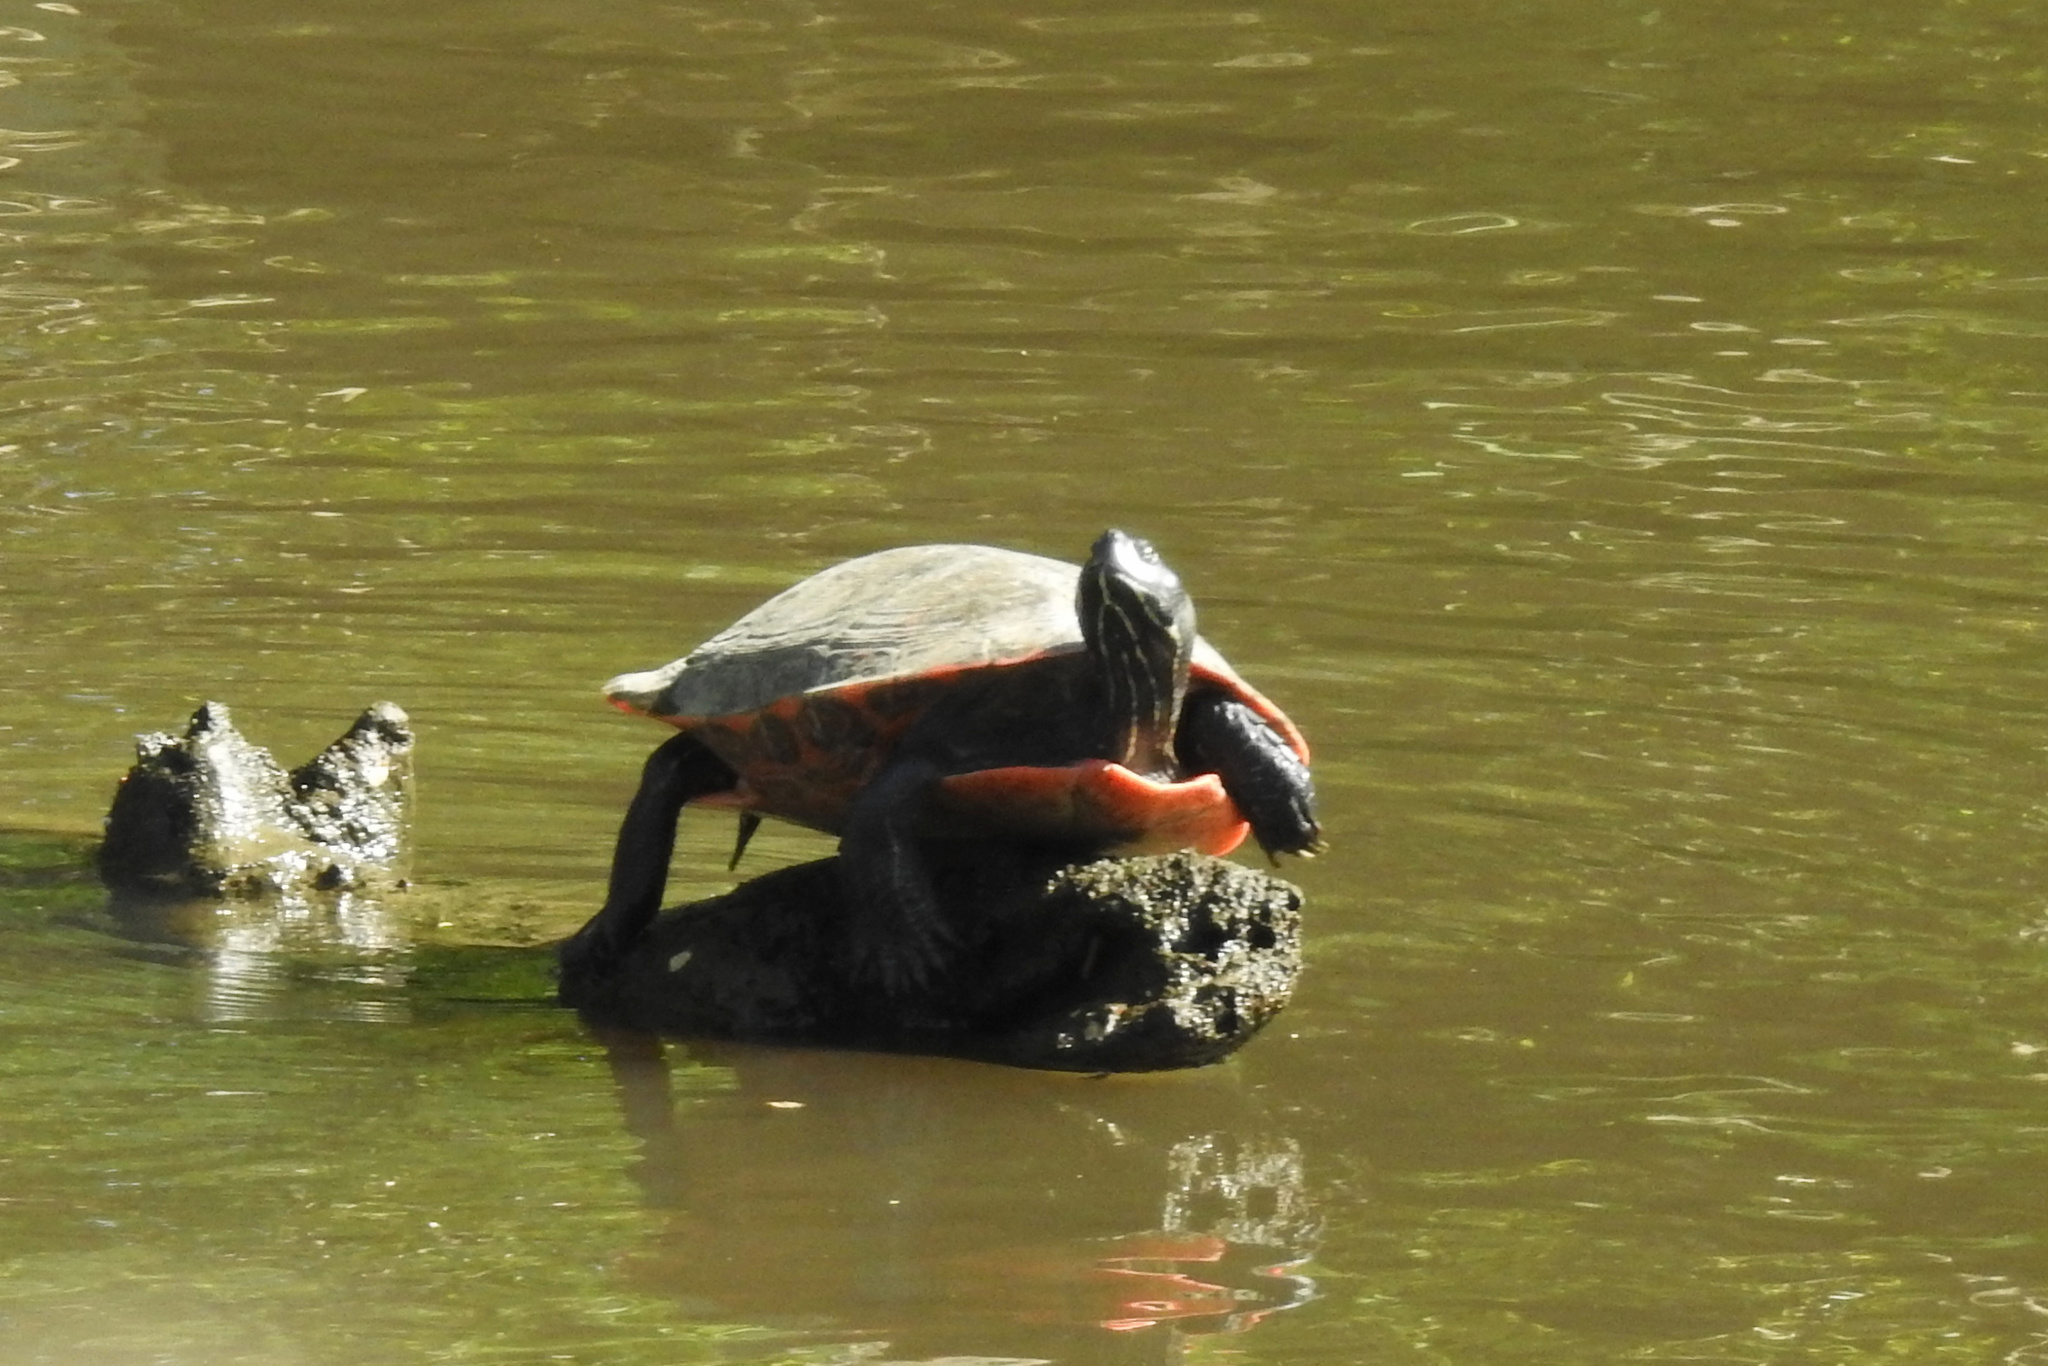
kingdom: Animalia
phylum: Chordata
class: Testudines
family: Emydidae
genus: Pseudemys
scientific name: Pseudemys rubriventris
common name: American red-bellied turtle
